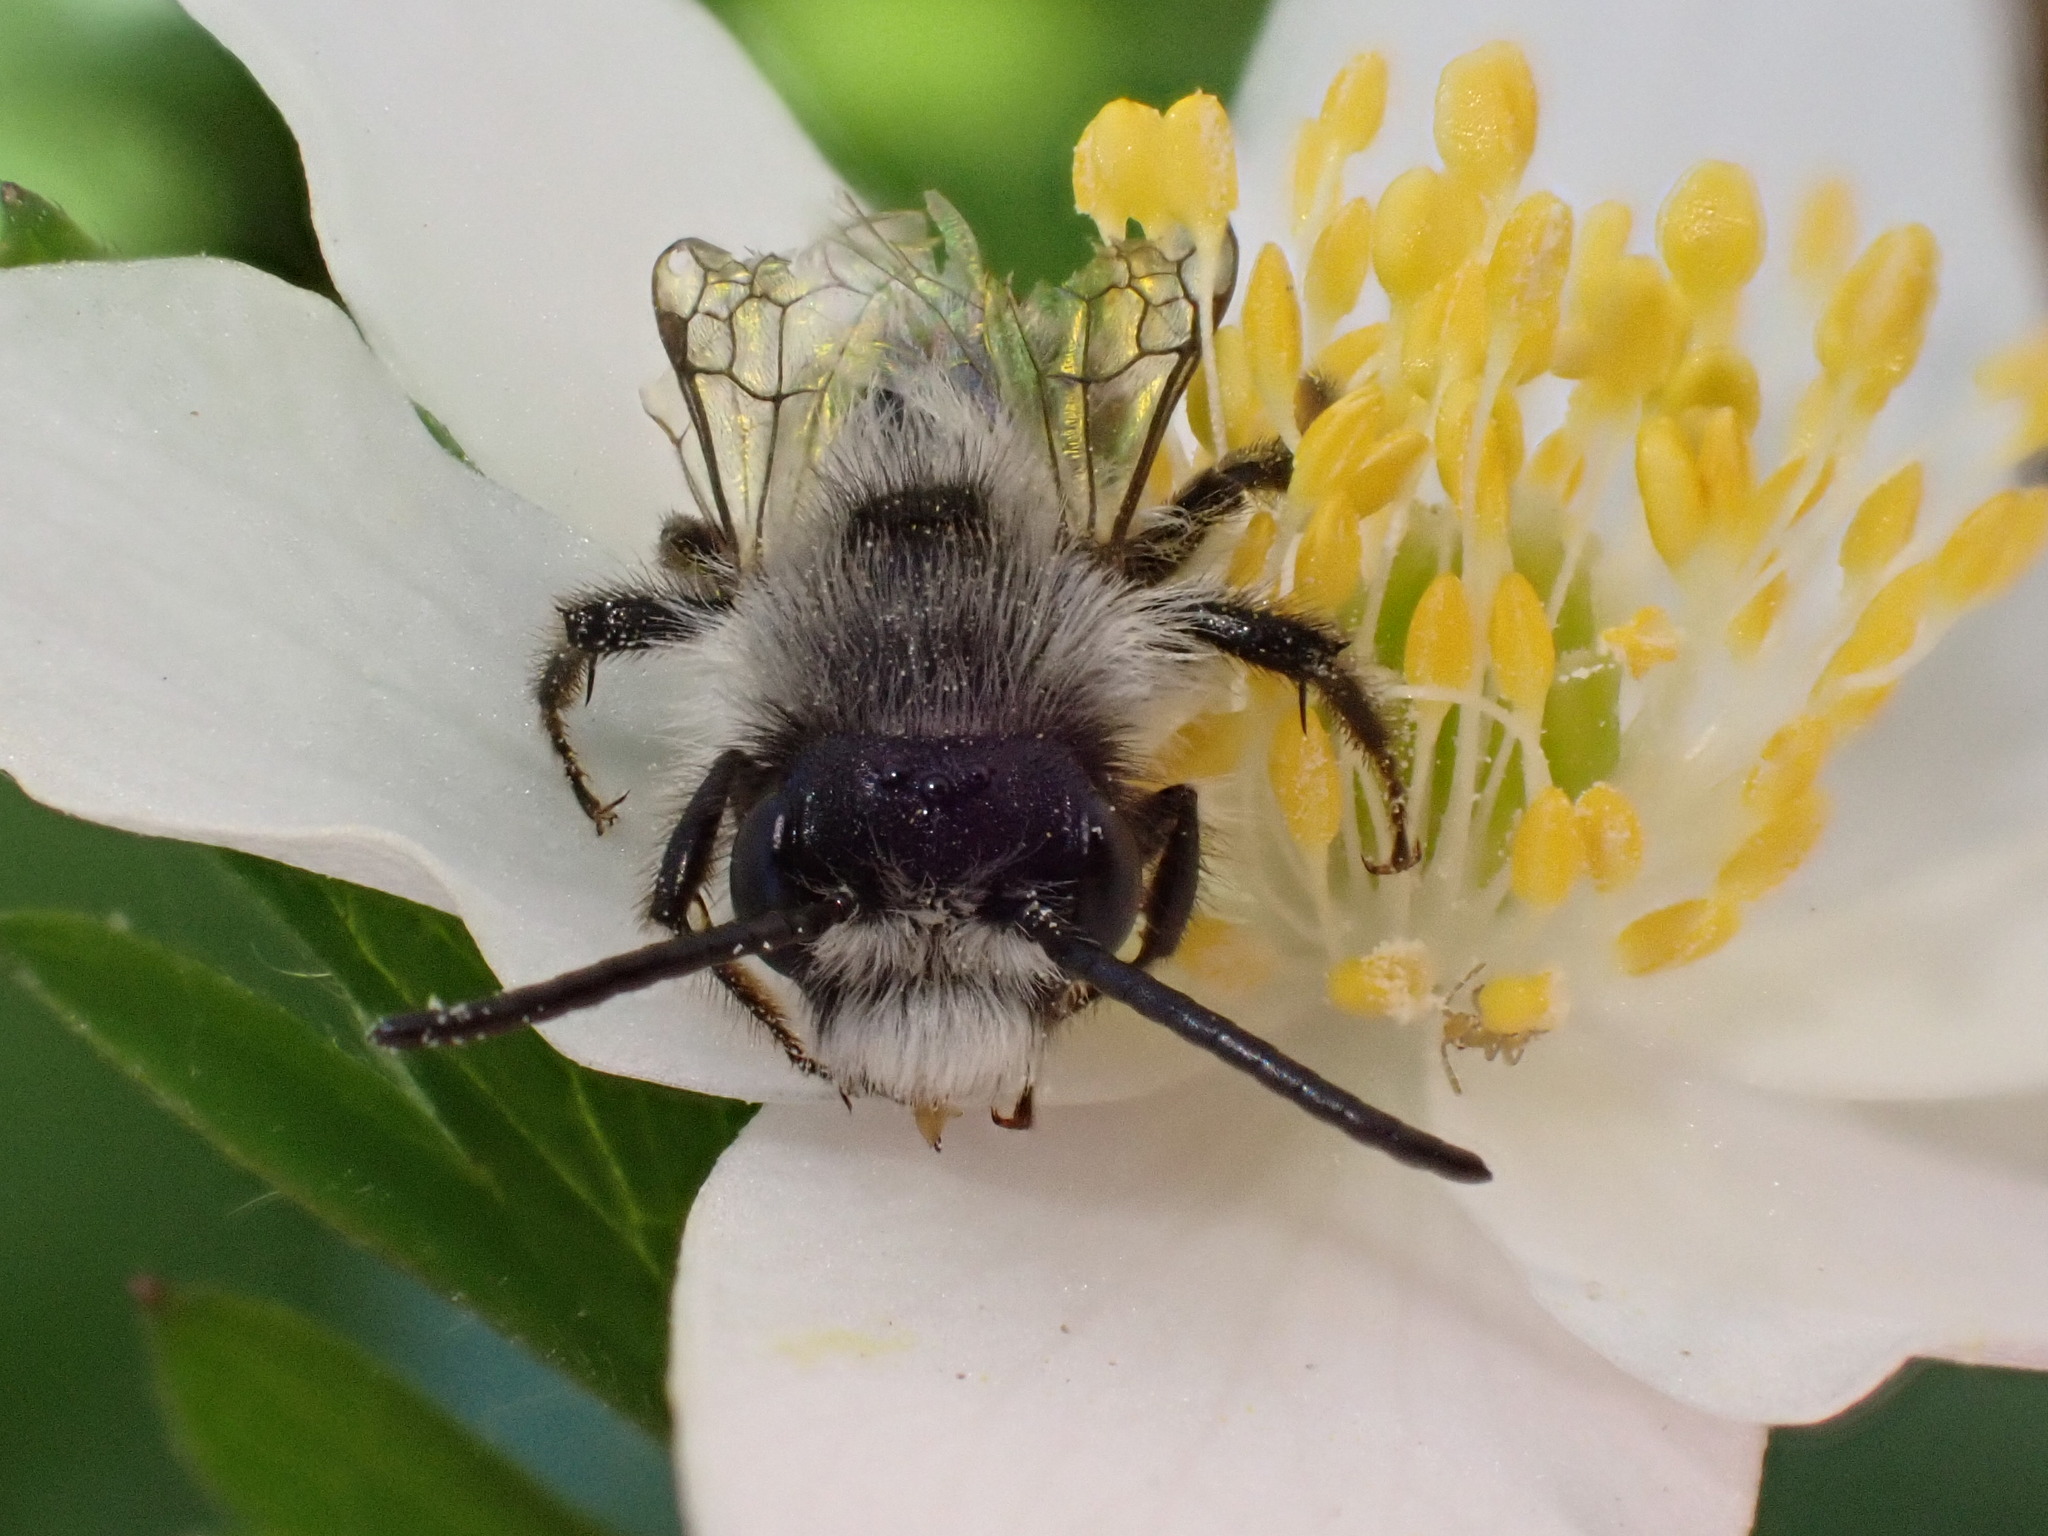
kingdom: Animalia
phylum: Arthropoda
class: Insecta
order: Hymenoptera
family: Andrenidae
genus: Andrena
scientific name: Andrena cineraria
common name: Ashy mining bee
